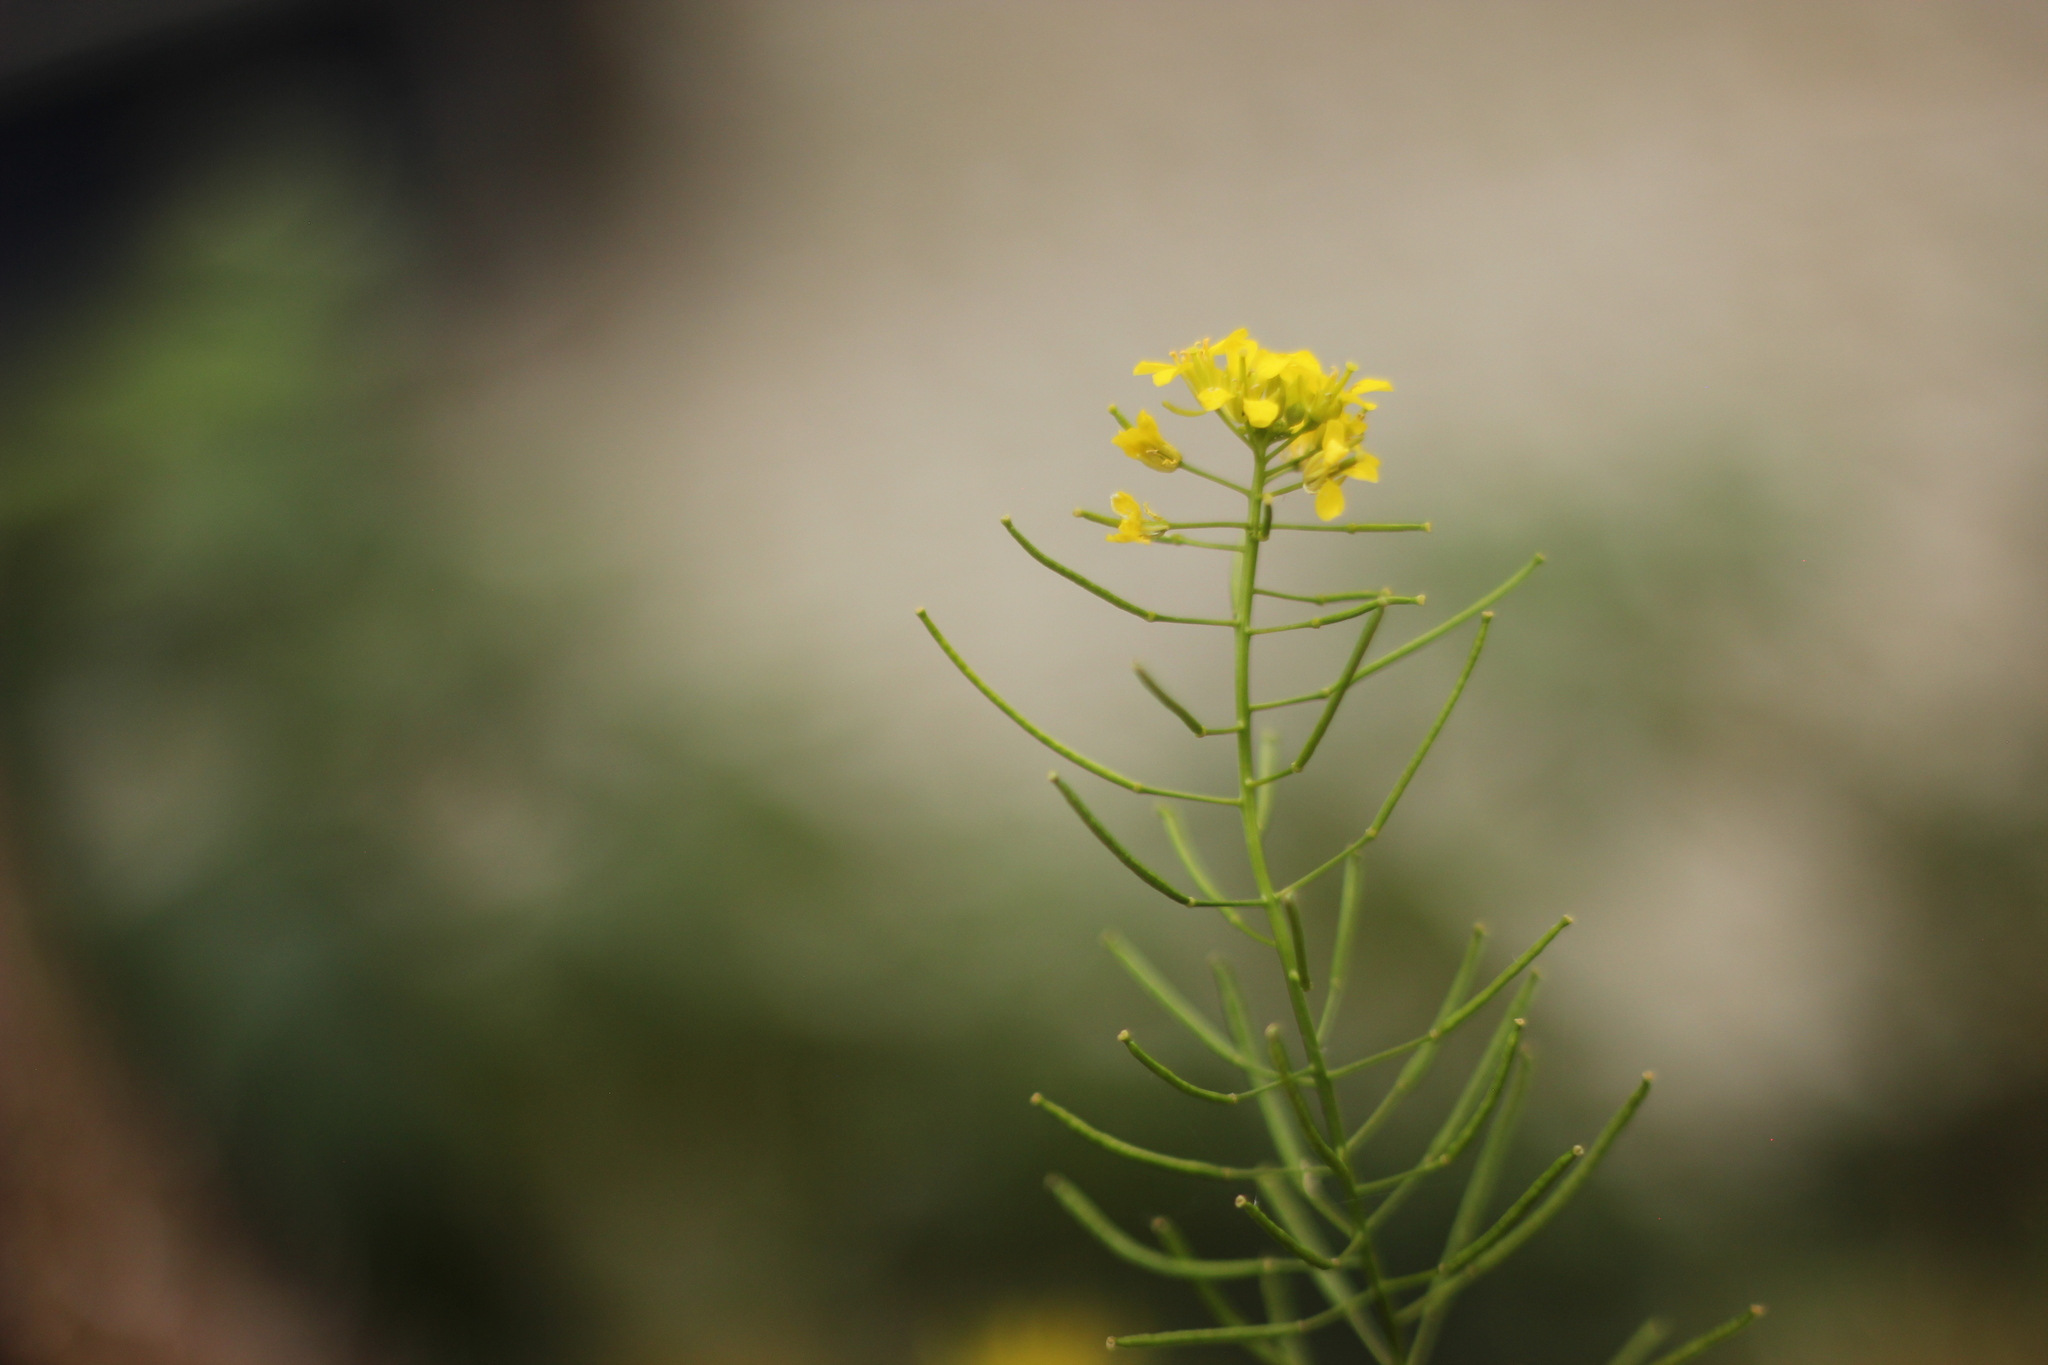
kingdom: Plantae
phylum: Tracheophyta
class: Magnoliopsida
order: Brassicales
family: Brassicaceae
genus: Sisymbrium
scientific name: Sisymbrium loeselii
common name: False london-rocket
